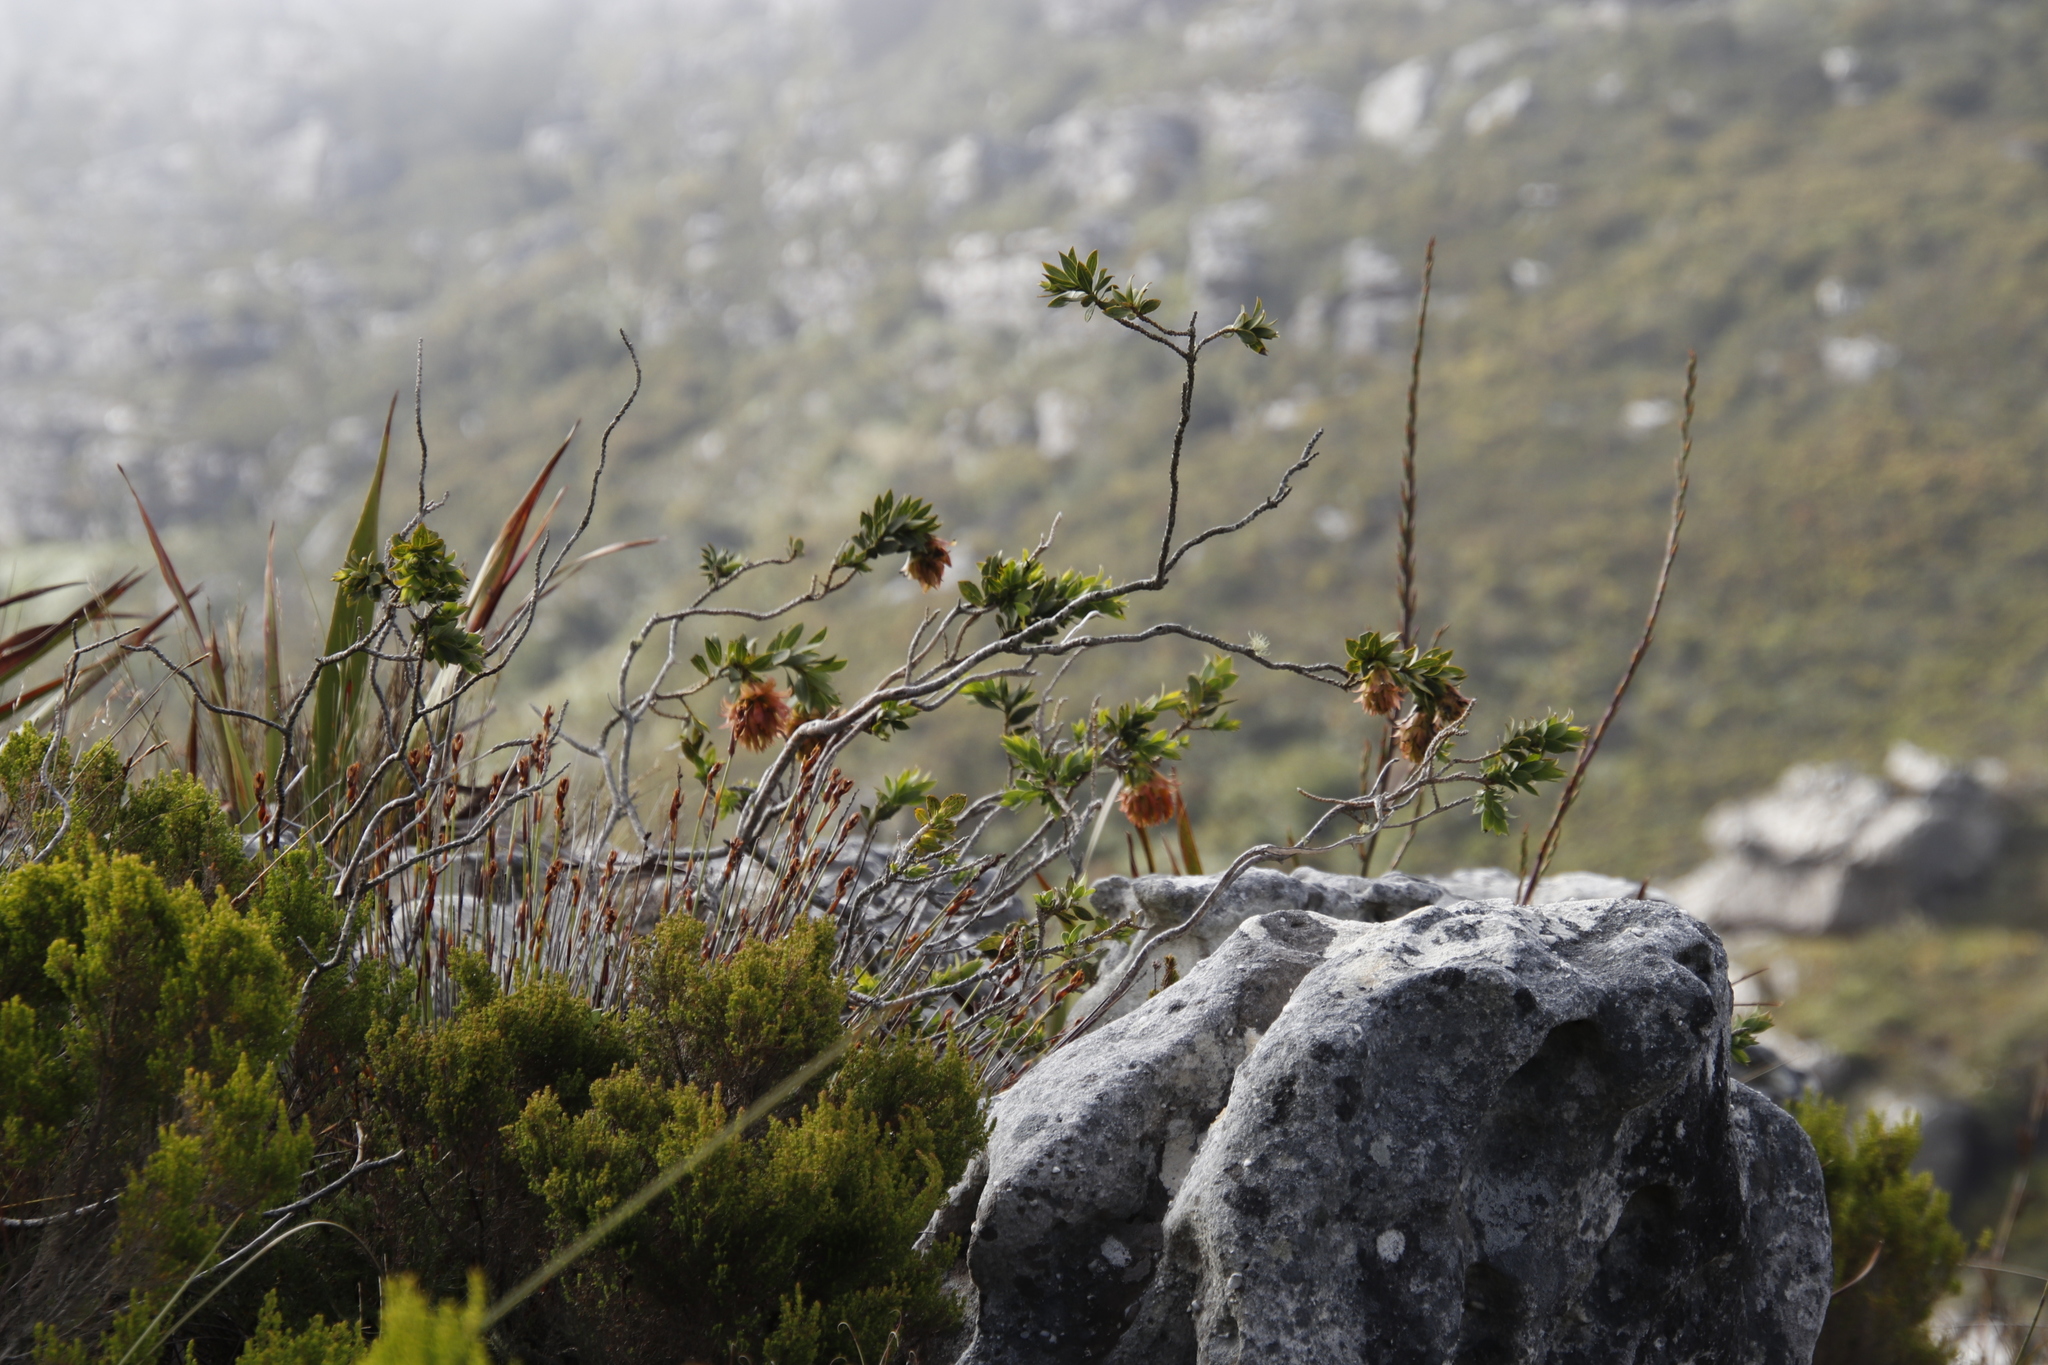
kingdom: Plantae
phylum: Tracheophyta
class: Magnoliopsida
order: Fabales
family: Fabaceae
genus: Liparia
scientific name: Liparia splendens
